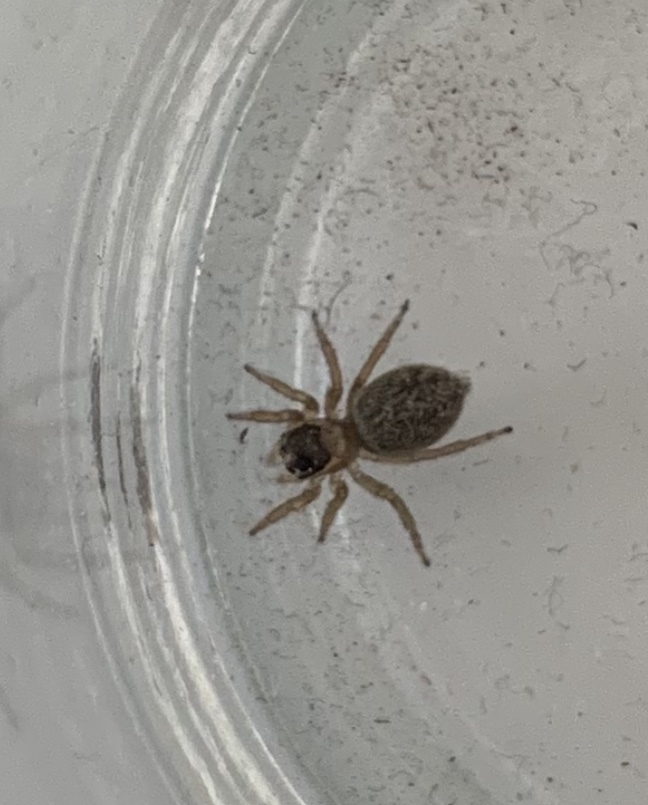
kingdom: Animalia
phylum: Arthropoda
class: Arachnida
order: Araneae
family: Salticidae
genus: Maratus
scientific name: Maratus griseus
